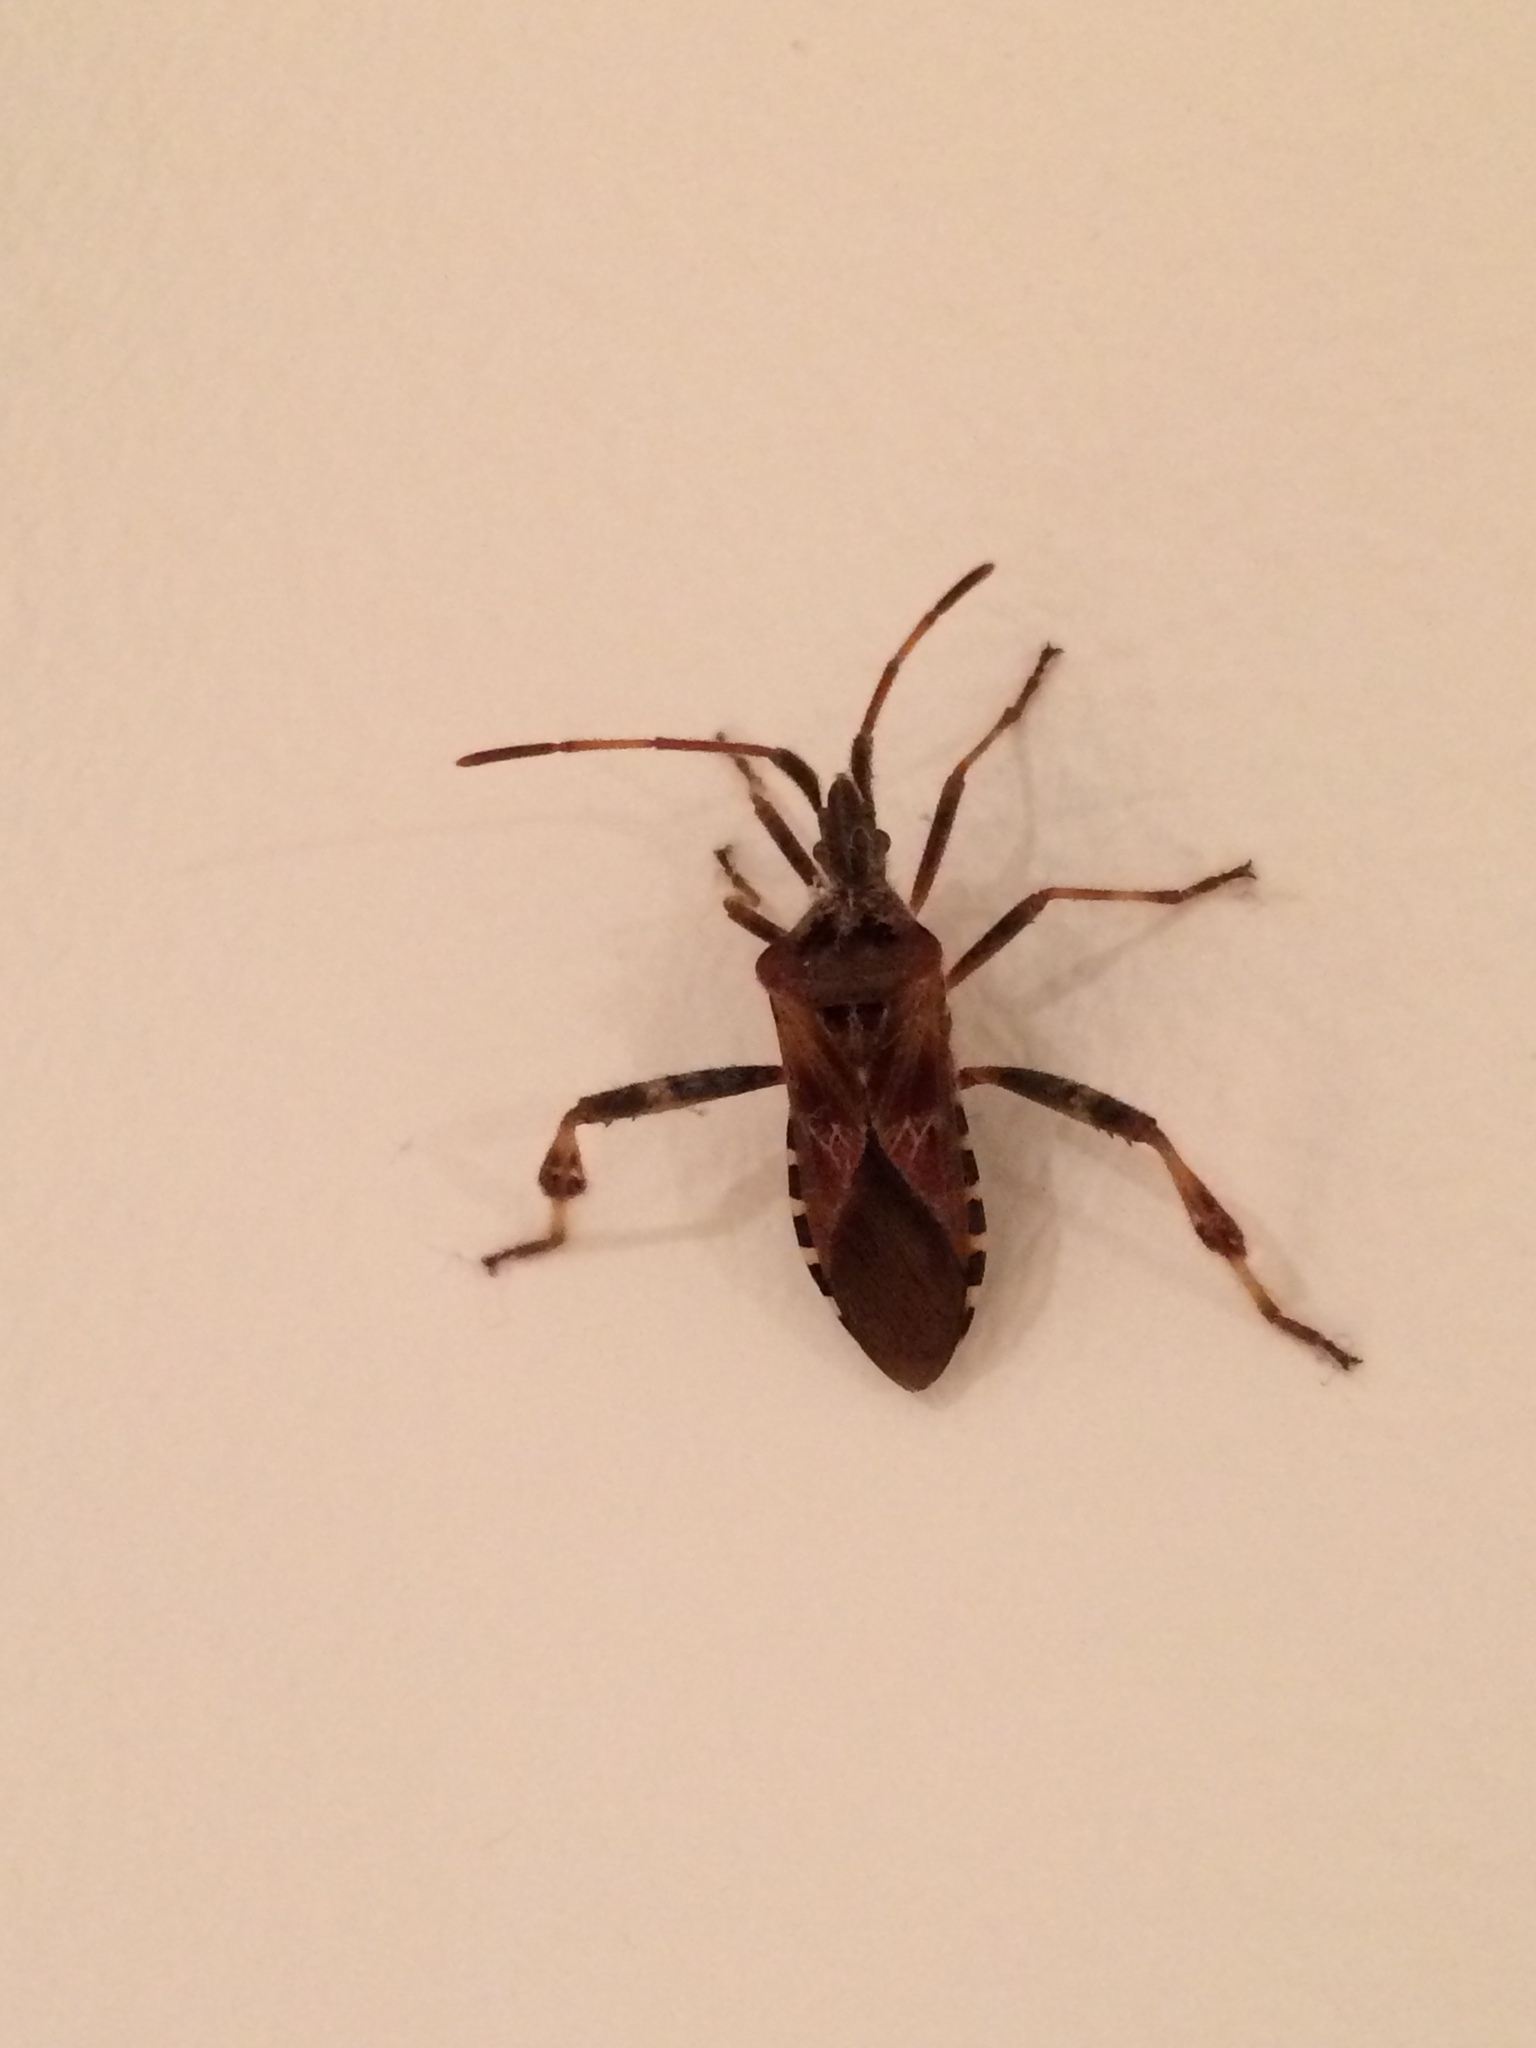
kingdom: Animalia
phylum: Arthropoda
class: Insecta
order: Hemiptera
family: Coreidae
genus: Leptoglossus
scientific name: Leptoglossus occidentalis
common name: Western conifer-seed bug
